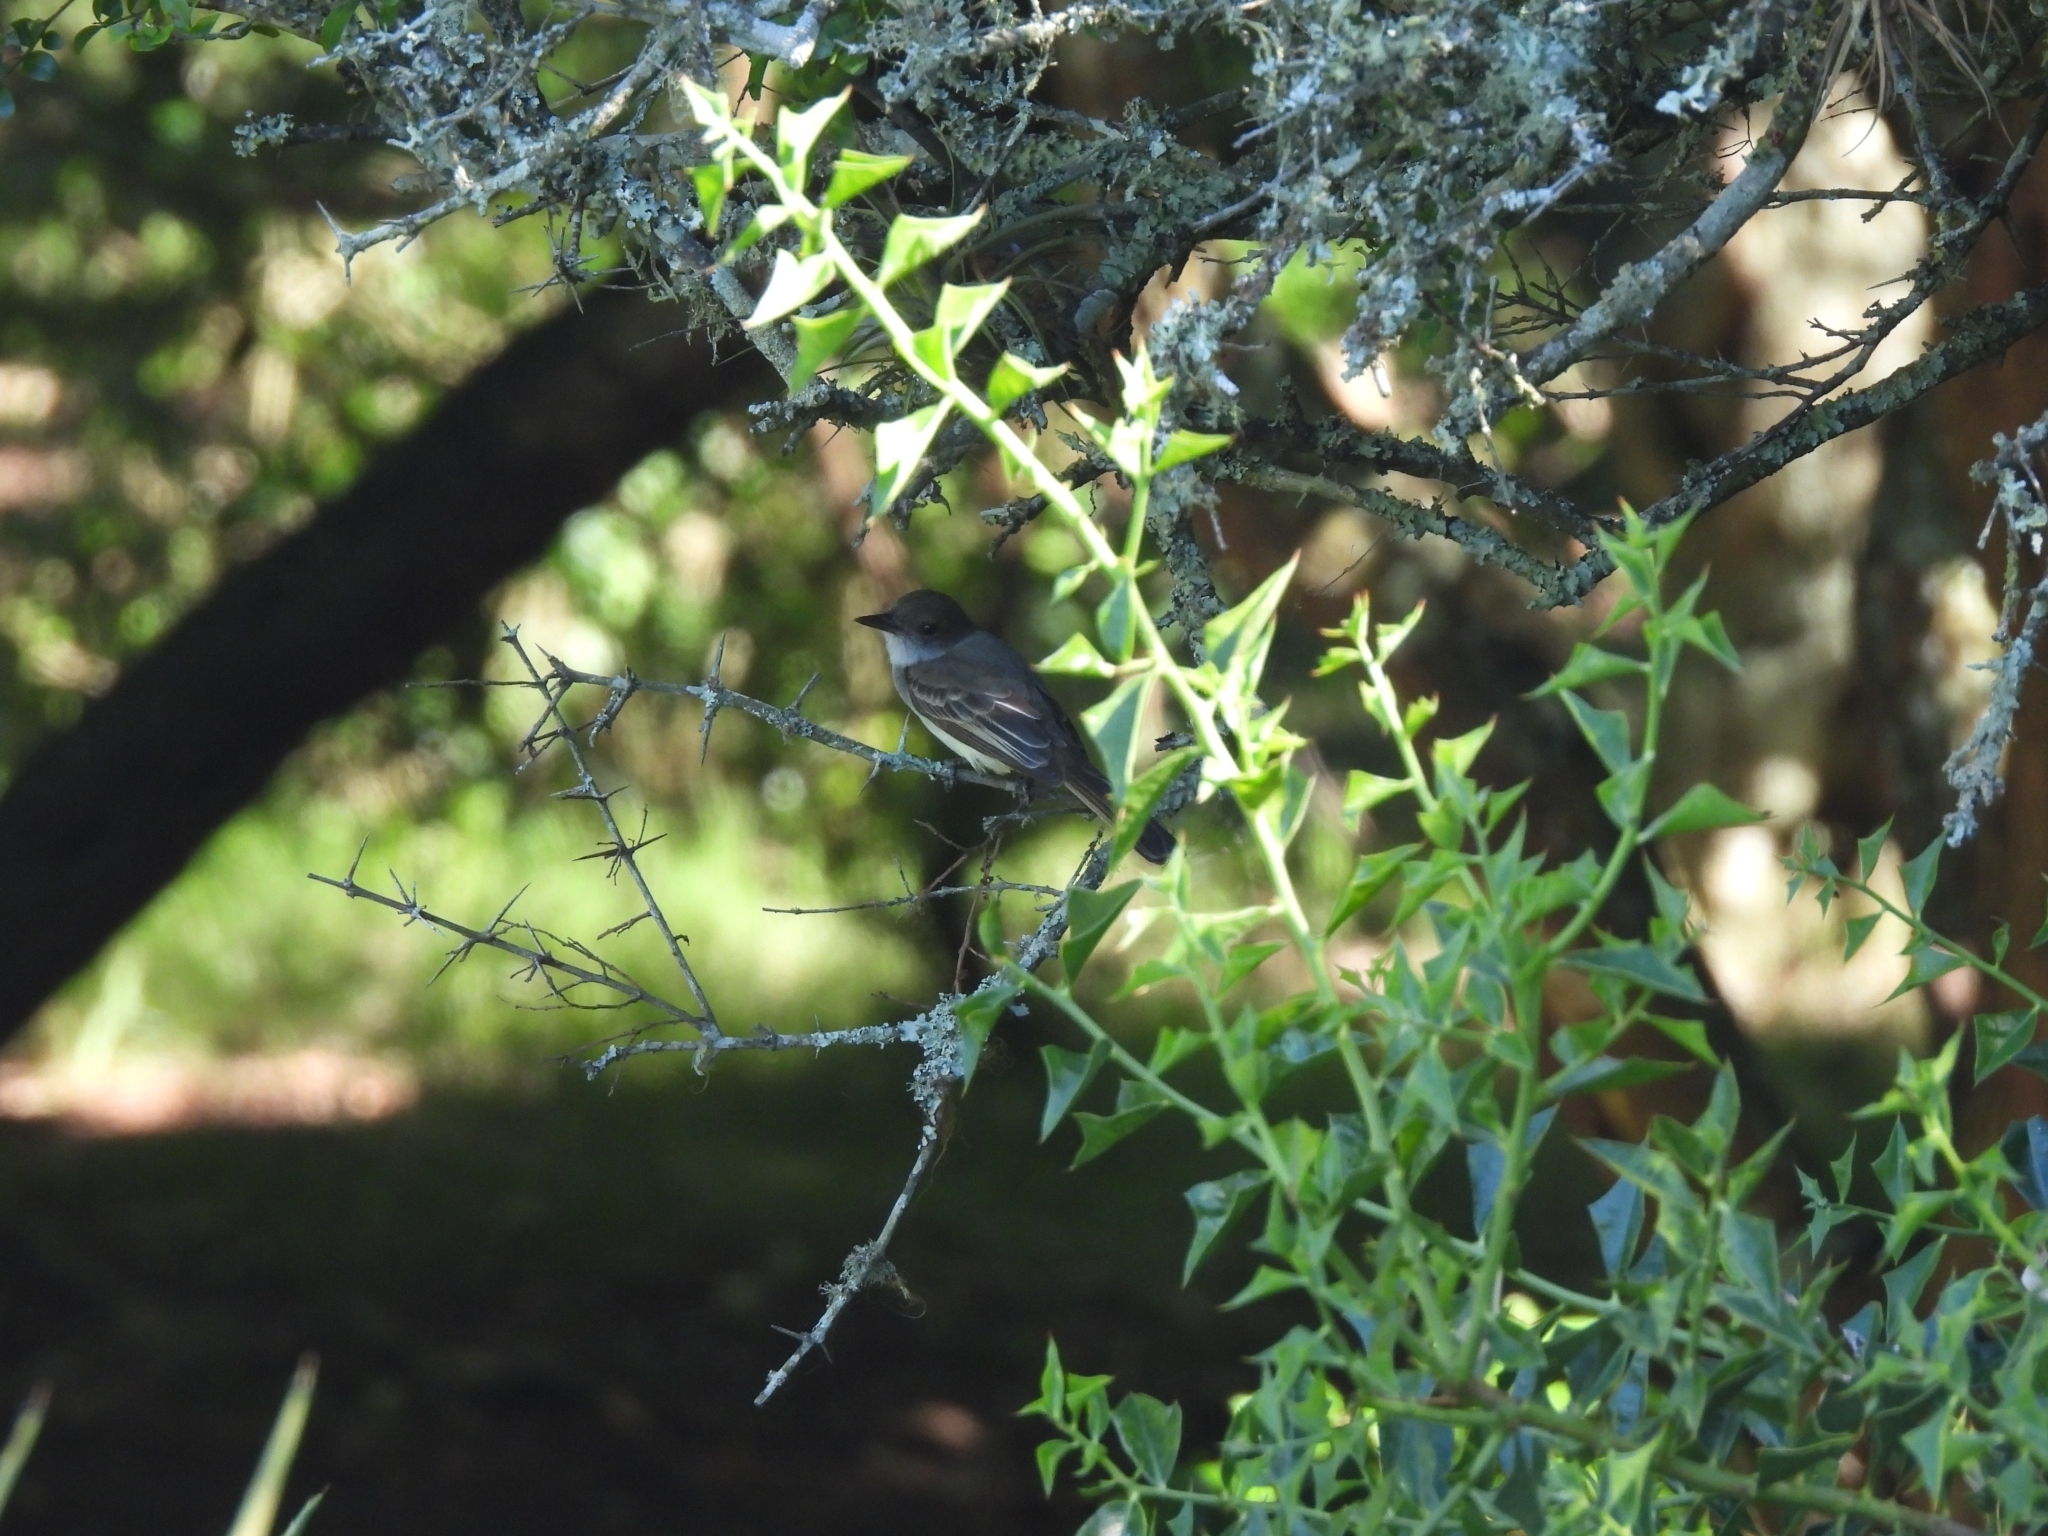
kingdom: Animalia
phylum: Chordata
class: Aves
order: Passeriformes
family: Tyrannidae
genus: Myiarchus
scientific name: Myiarchus swainsoni
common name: Swainson's flycatcher
